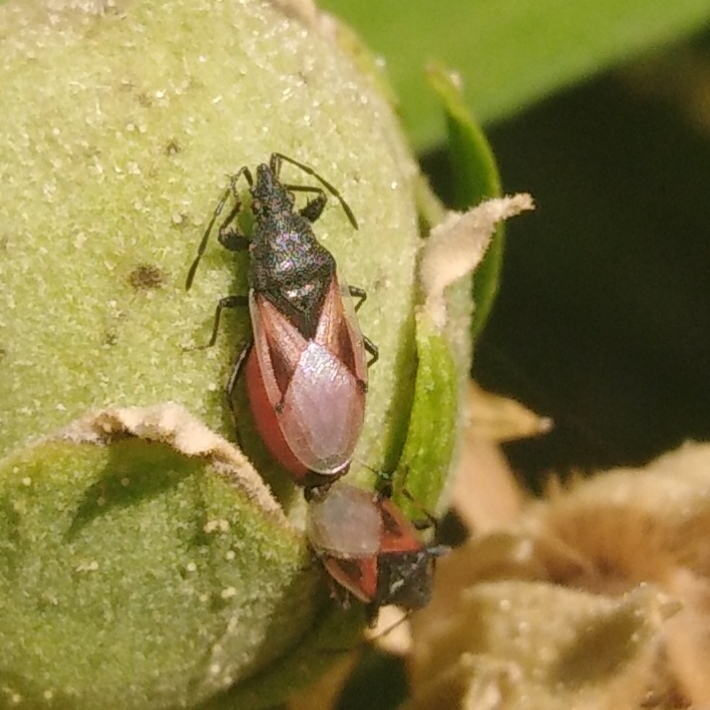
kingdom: Animalia
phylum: Arthropoda
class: Insecta
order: Hemiptera
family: Oxycarenidae
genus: Oxycarenus
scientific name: Oxycarenus lavaterae
